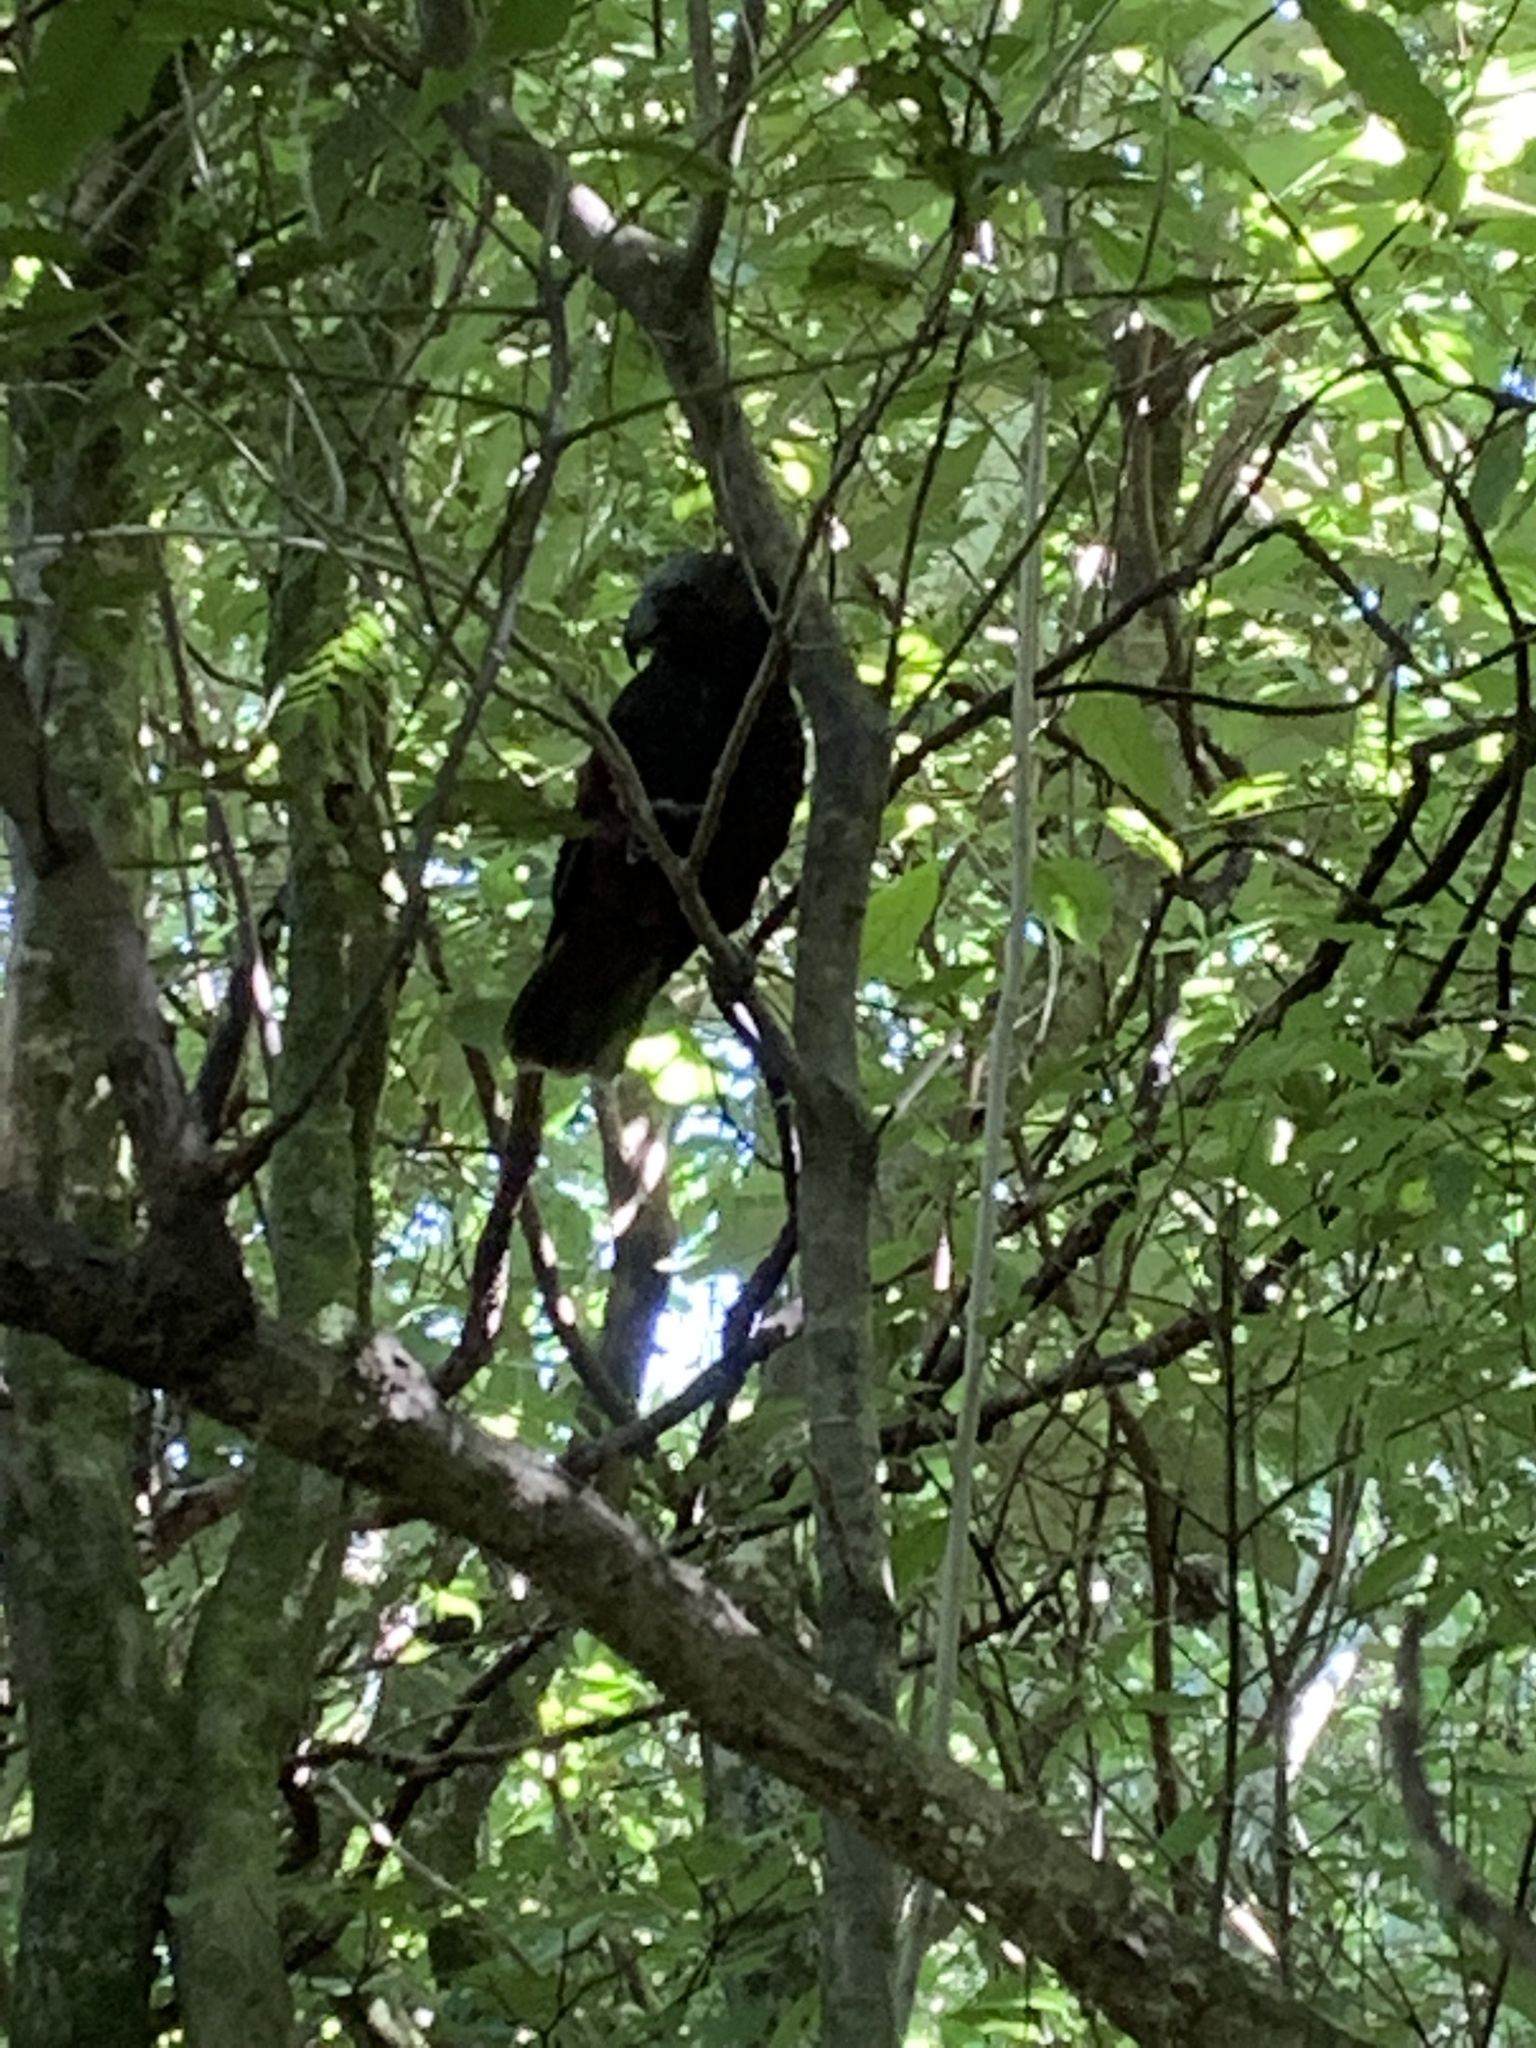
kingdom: Animalia
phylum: Chordata
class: Aves
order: Psittaciformes
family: Psittacidae
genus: Nestor
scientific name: Nestor meridionalis
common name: New zealand kaka
